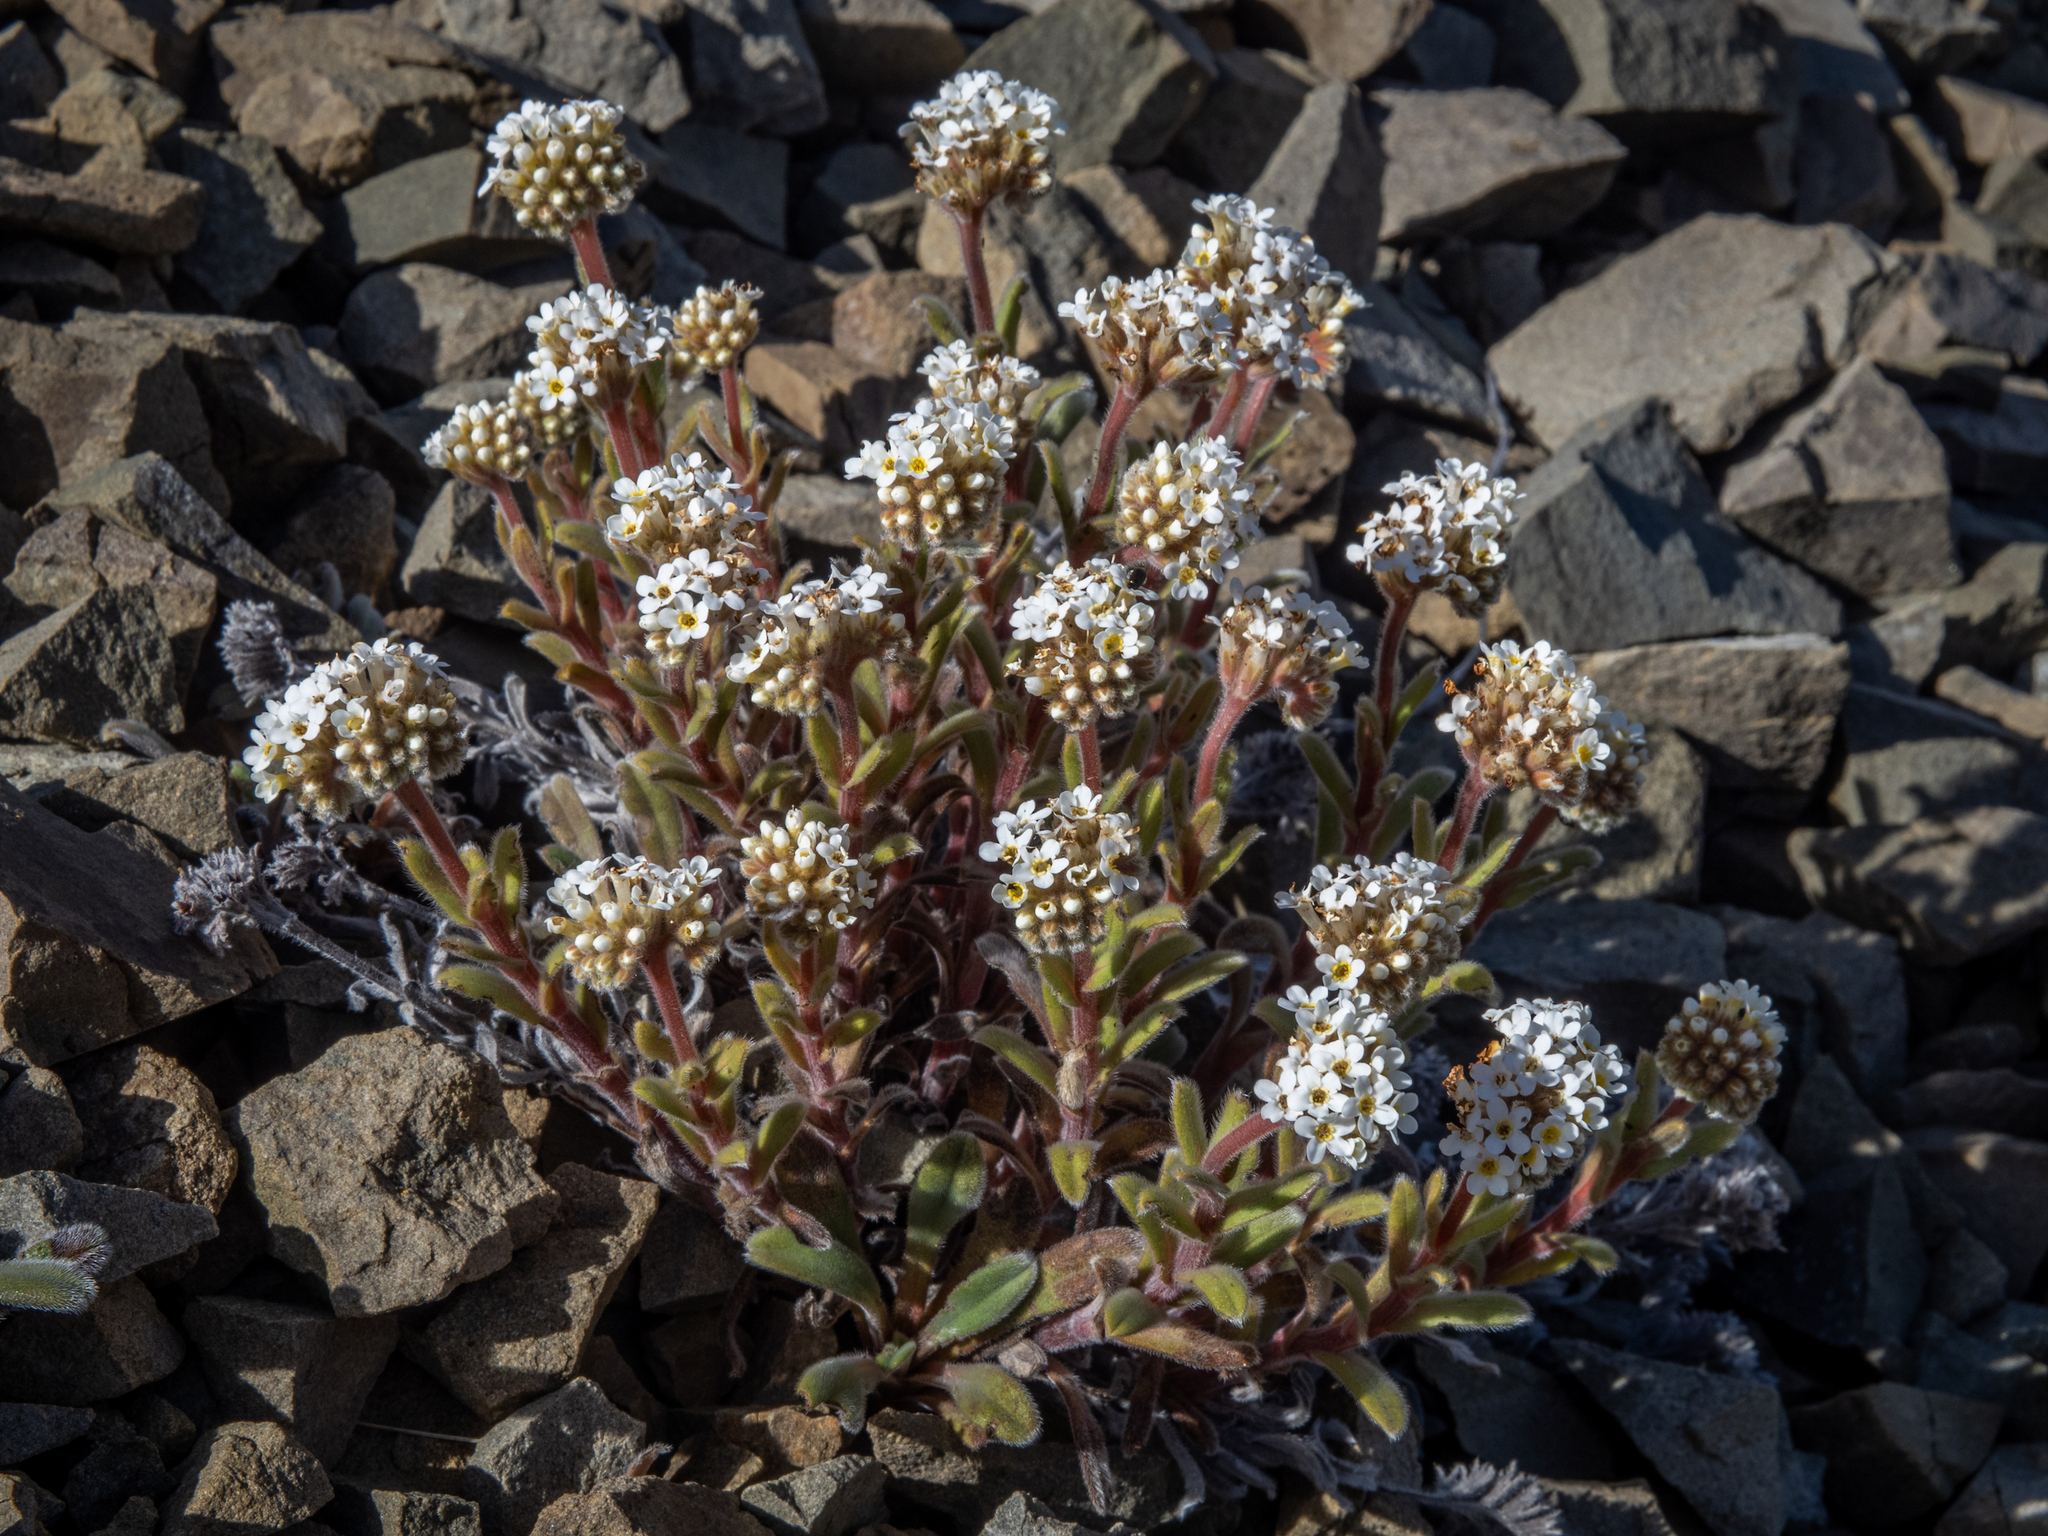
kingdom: Plantae
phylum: Tracheophyta
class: Magnoliopsida
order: Boraginales
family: Boraginaceae
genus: Myosotis
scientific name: Myosotis traversii
